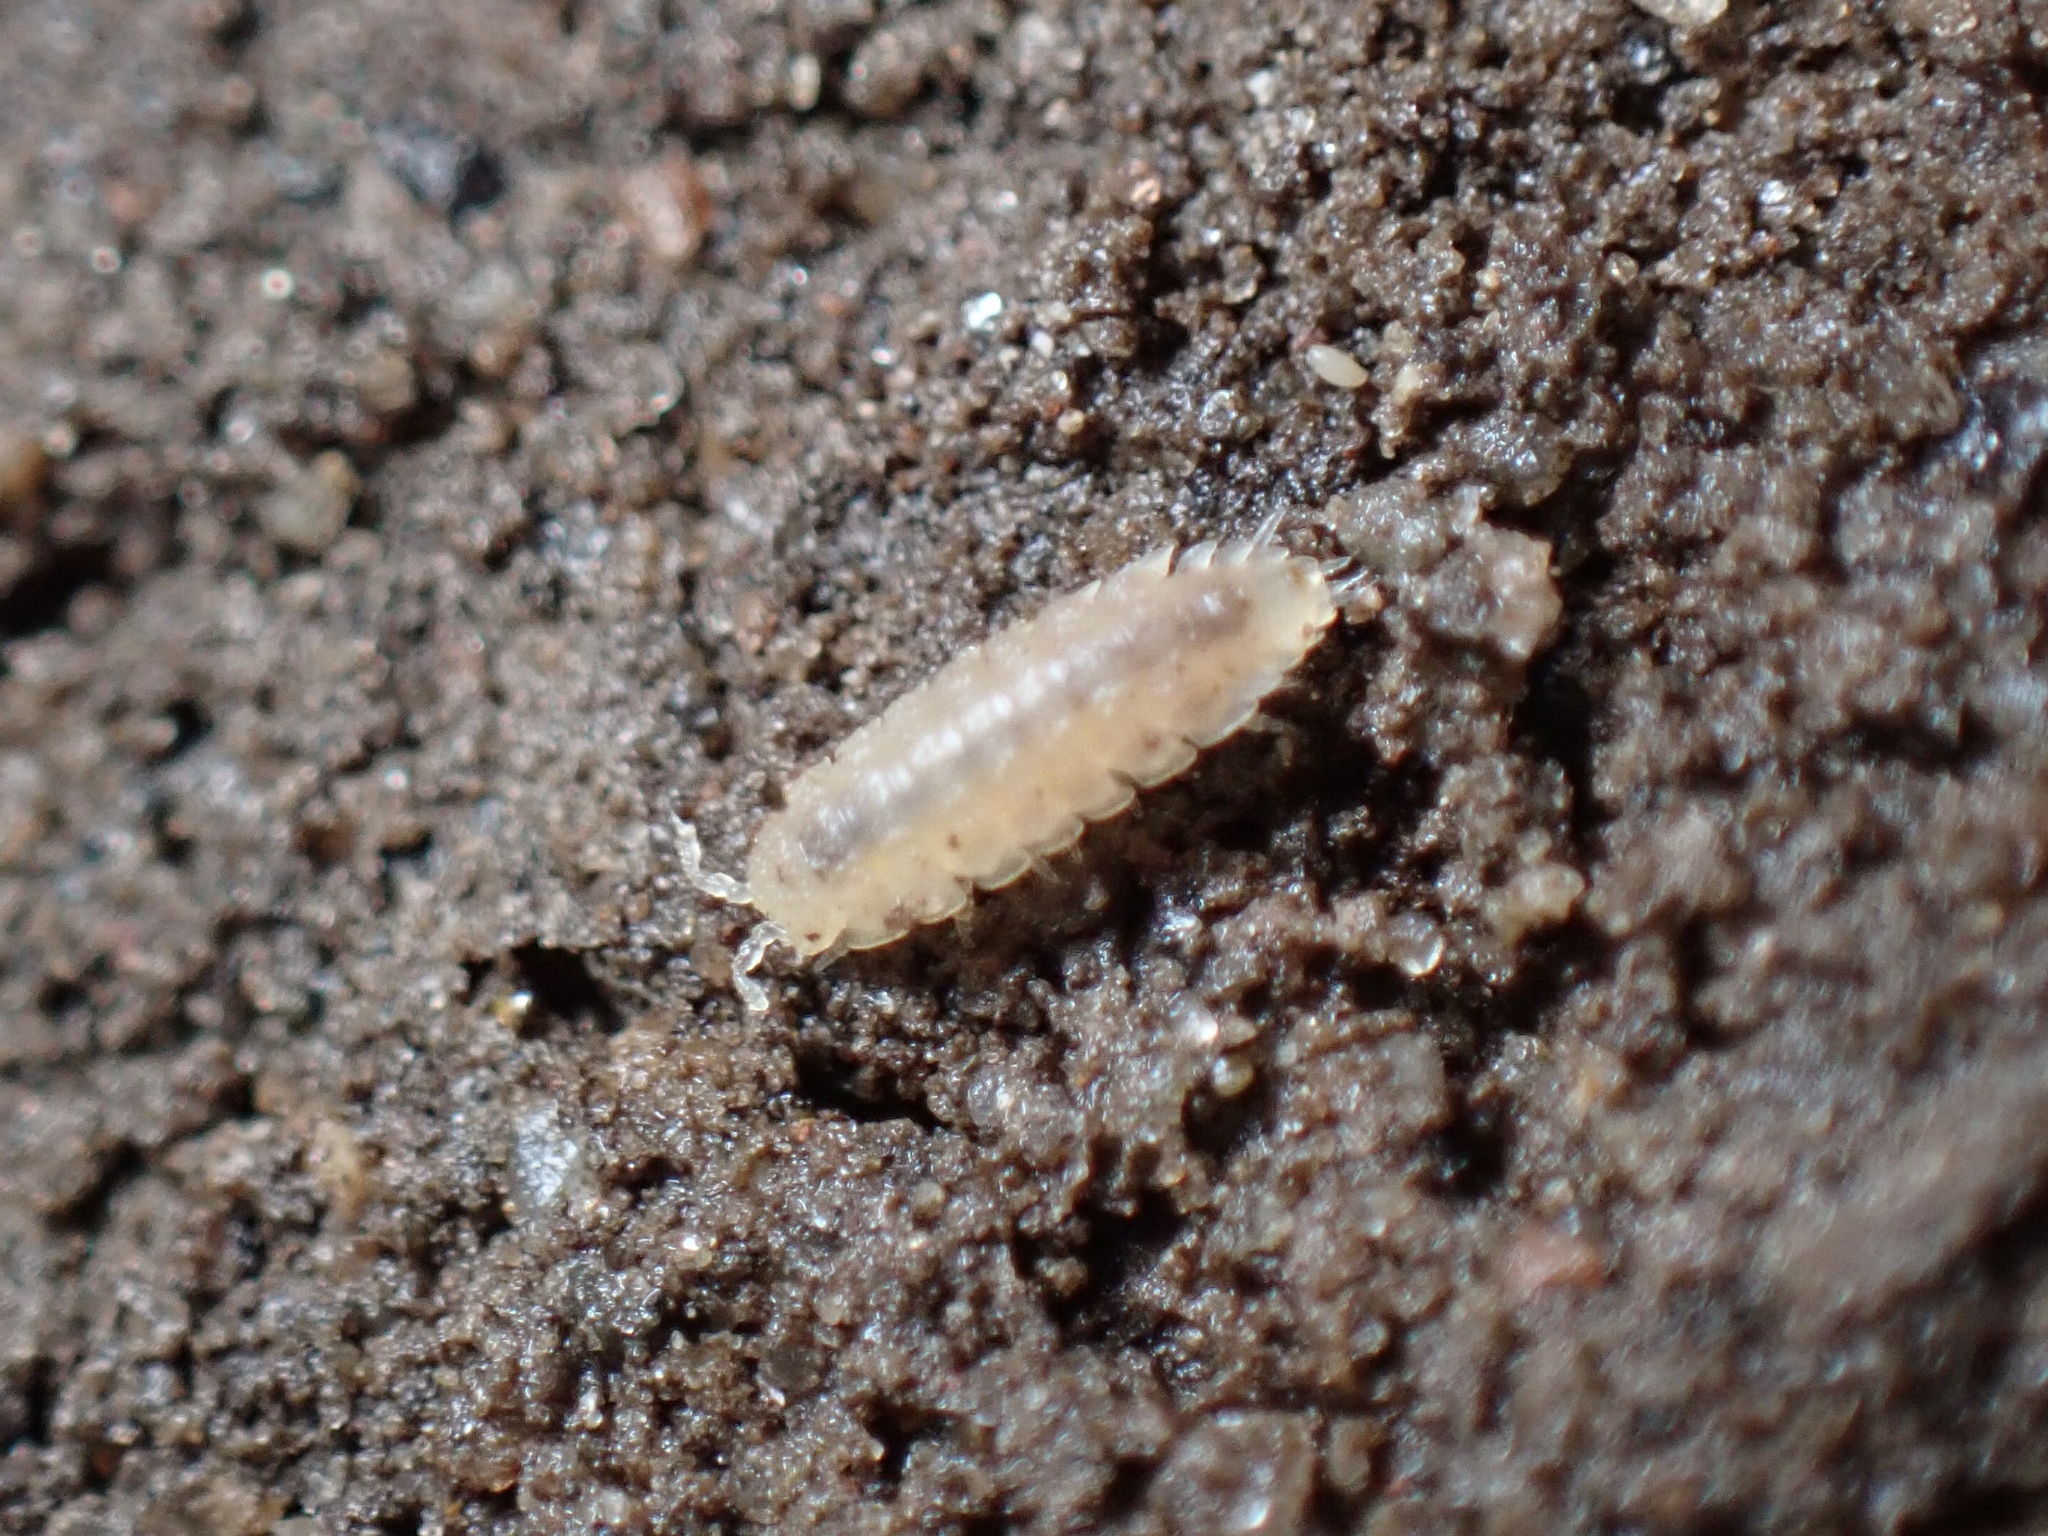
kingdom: Animalia
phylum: Arthropoda
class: Malacostraca
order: Isopoda
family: Trichoniscidae
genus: Haplophthalmus
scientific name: Haplophthalmus danicus
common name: Pillbug
